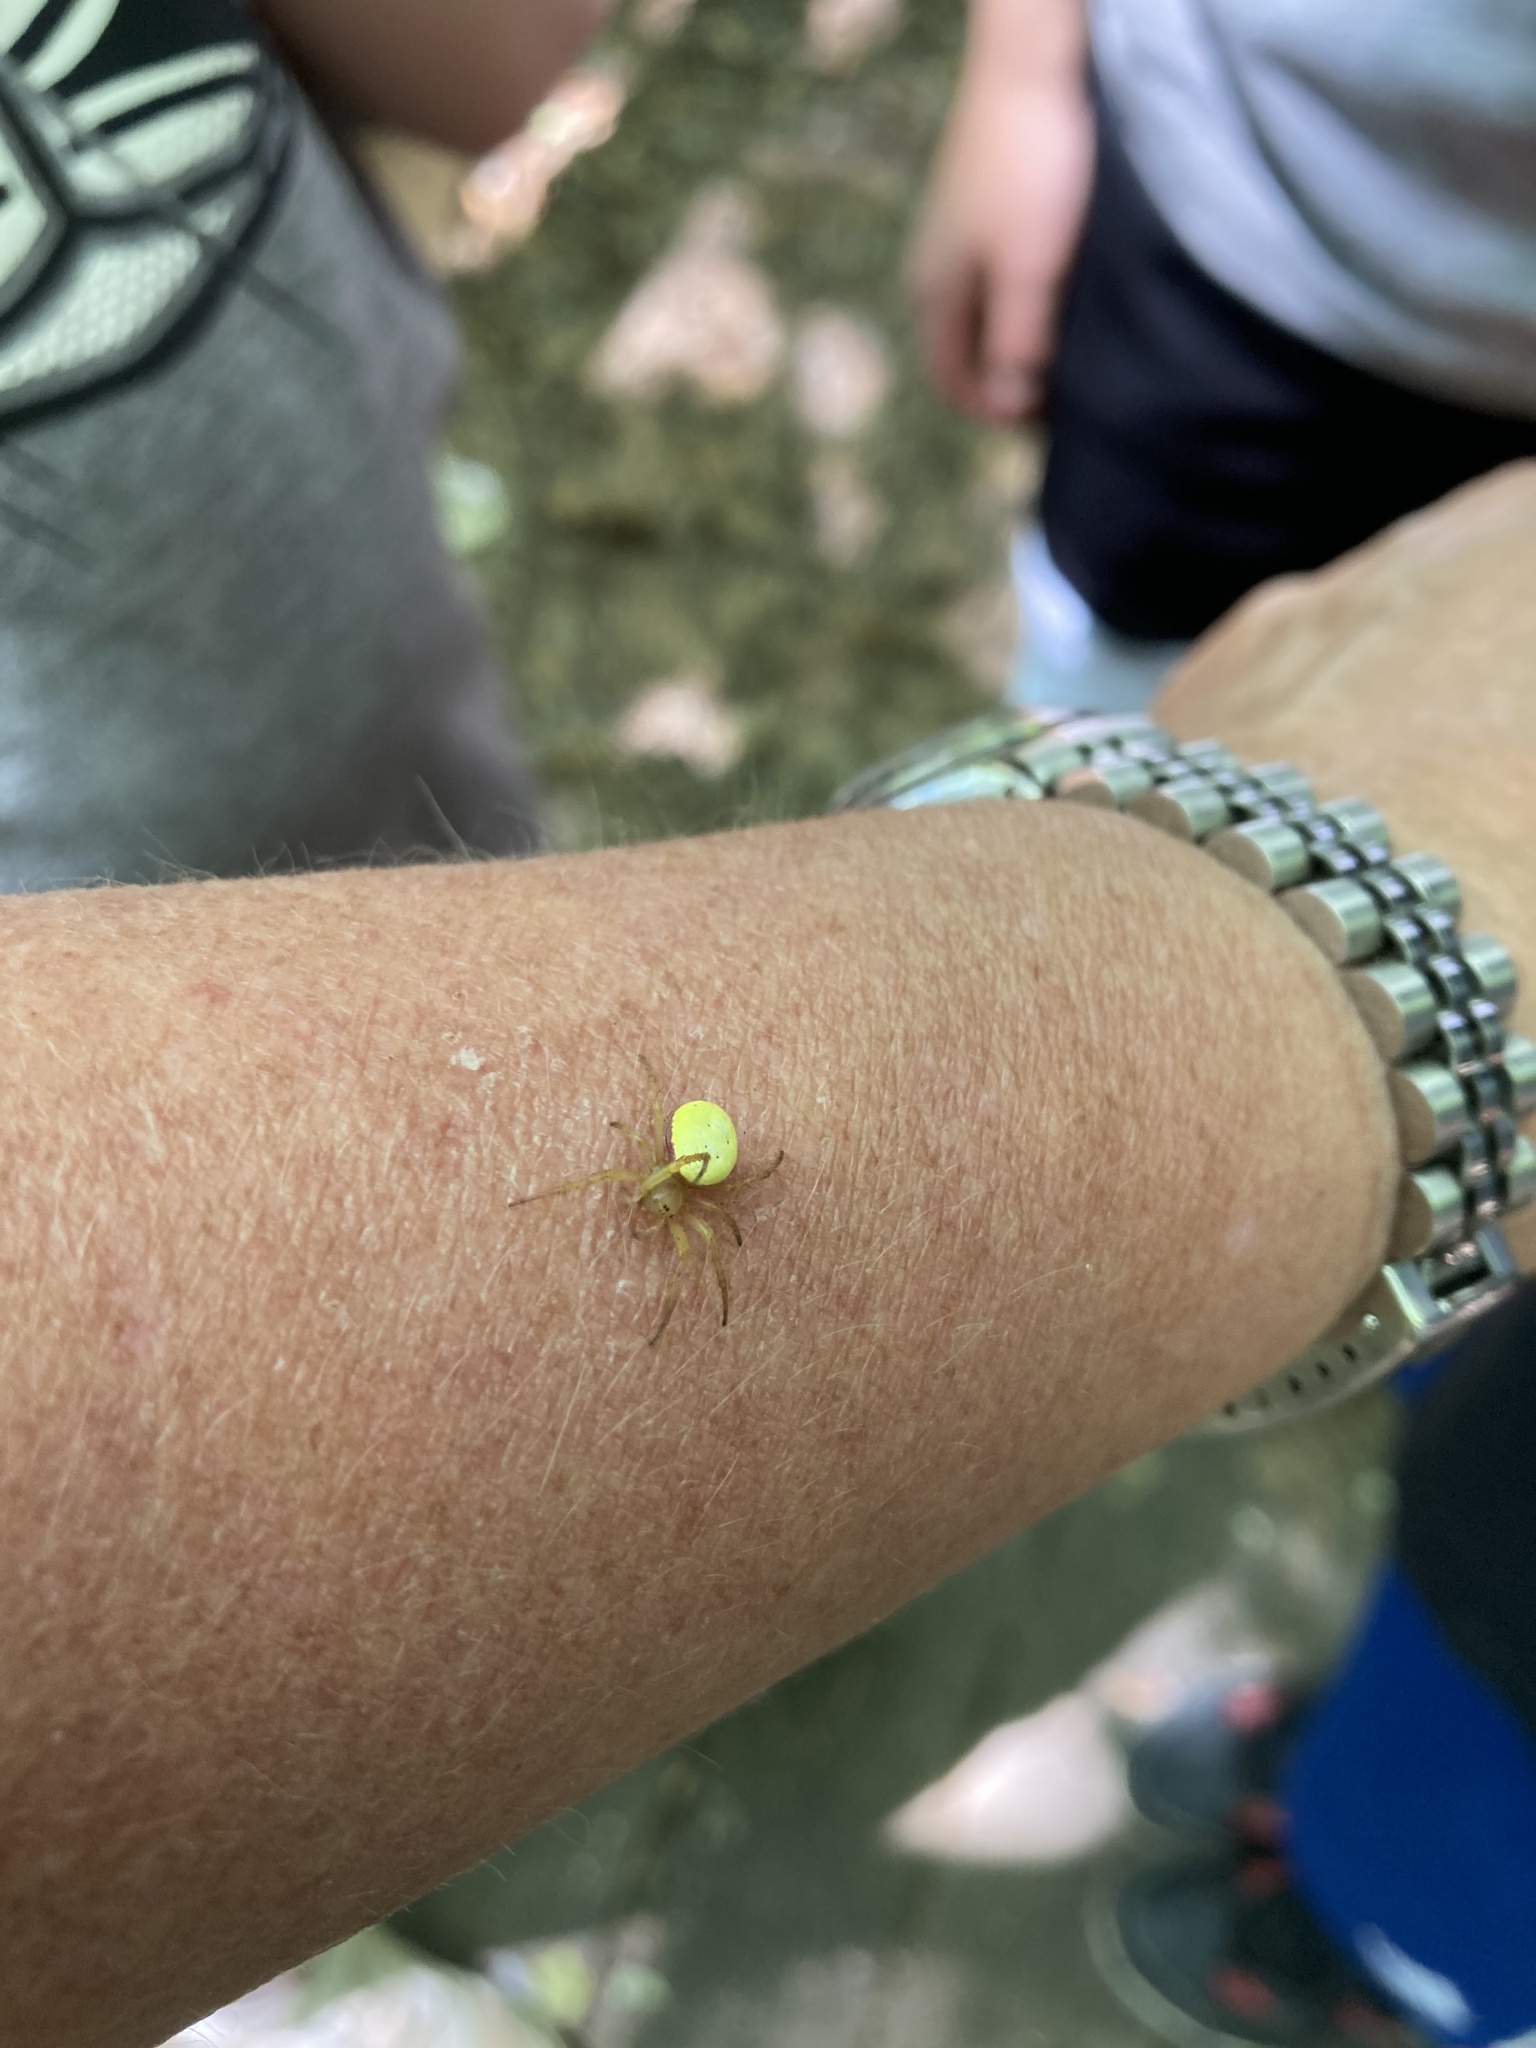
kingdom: Animalia
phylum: Arthropoda
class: Arachnida
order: Araneae
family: Araneidae
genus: Araniella
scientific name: Araniella displicata
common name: Sixspotted orb weaver
